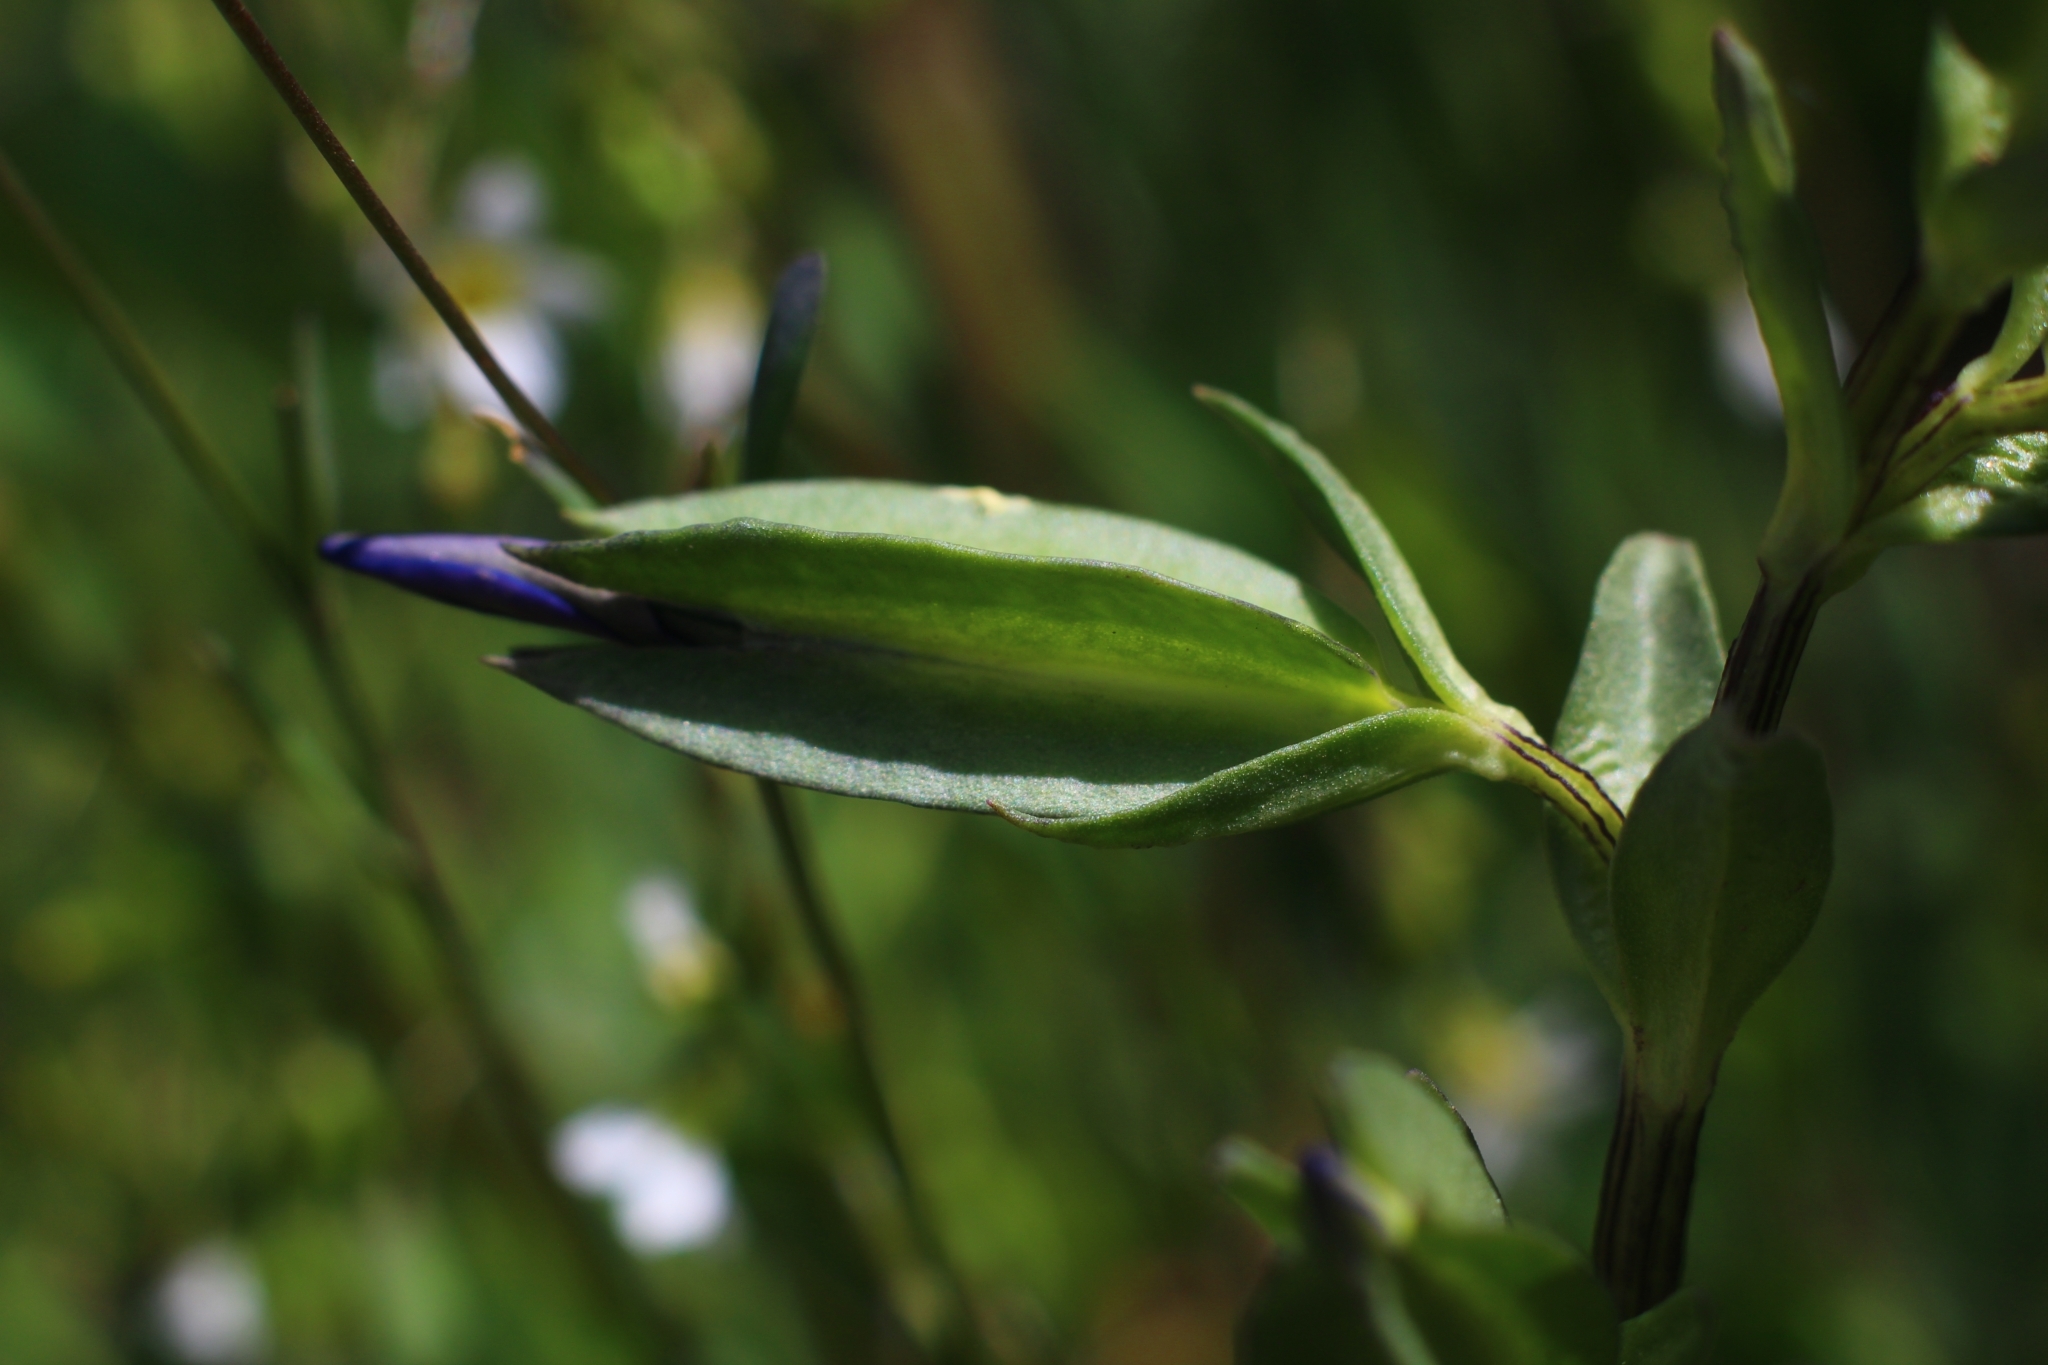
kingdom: Plantae
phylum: Tracheophyta
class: Magnoliopsida
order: Gentianales
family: Gentianaceae
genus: Gentiana
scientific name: Gentiana utriculosa
